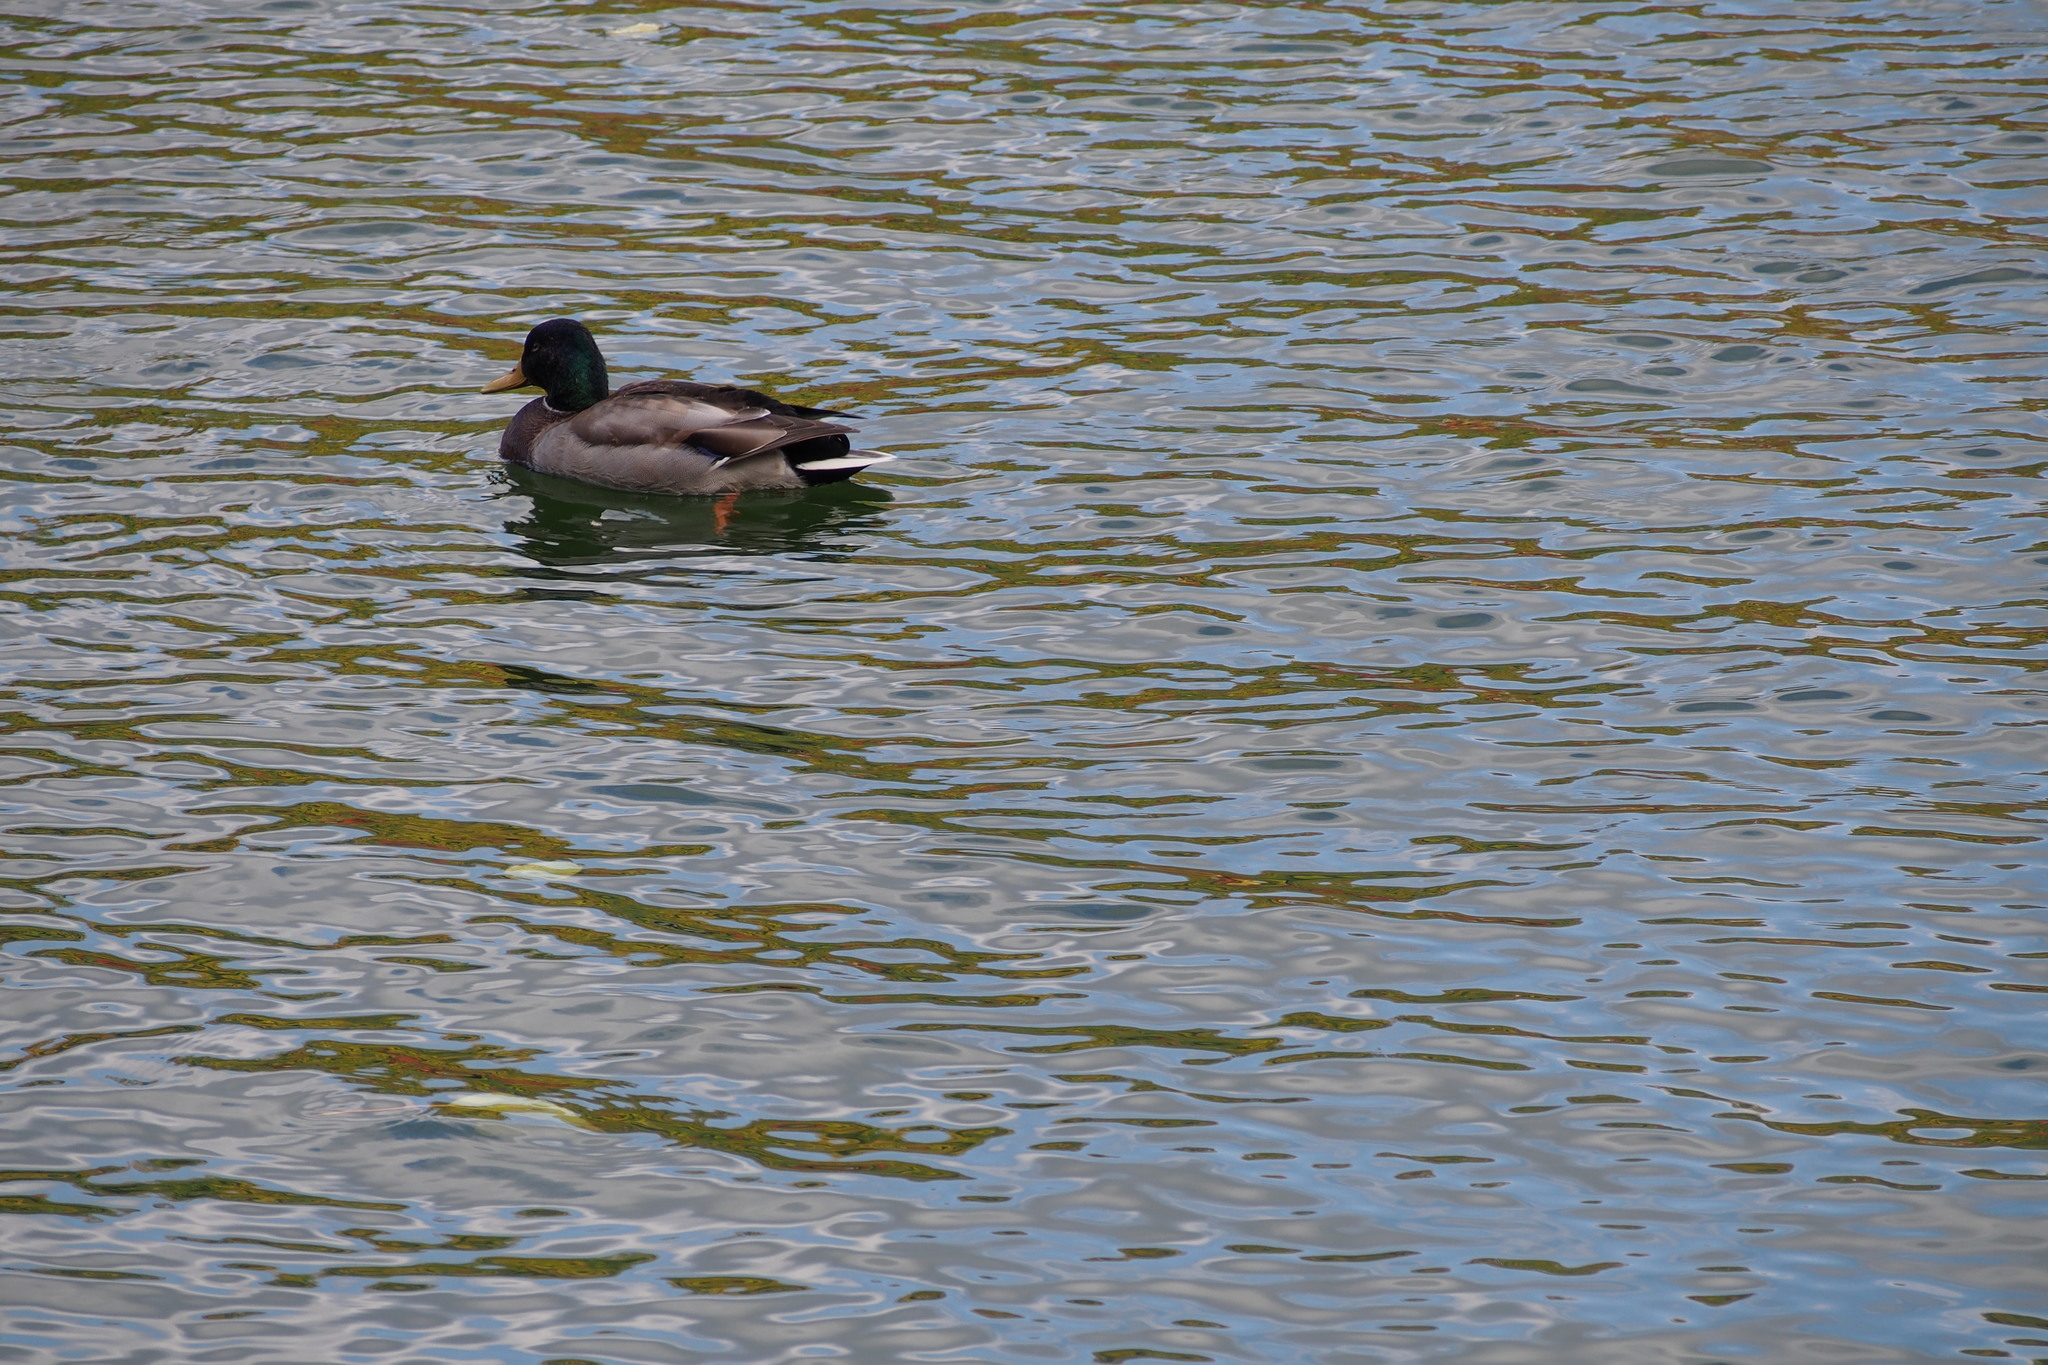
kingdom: Animalia
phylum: Chordata
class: Aves
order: Anseriformes
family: Anatidae
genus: Anas
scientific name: Anas platyrhynchos
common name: Mallard
